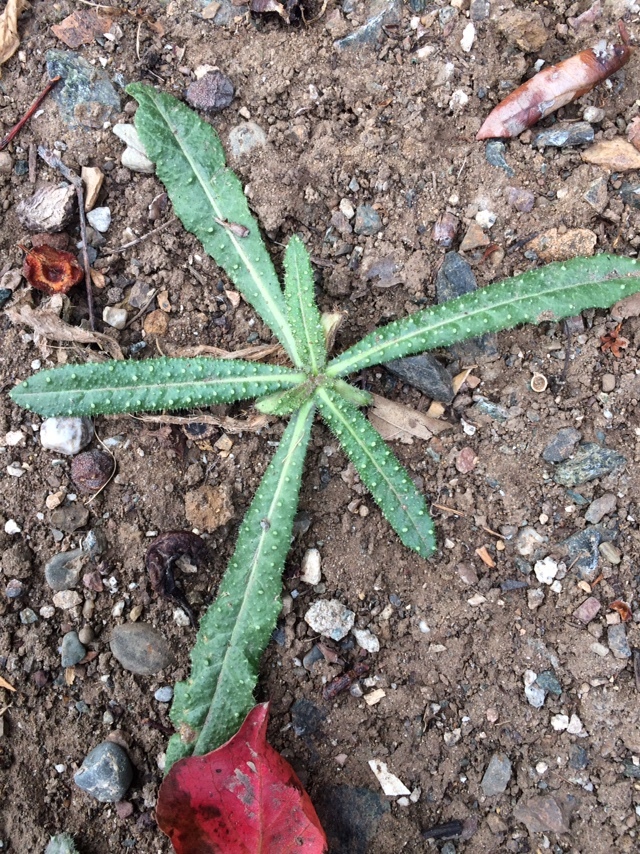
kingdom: Plantae
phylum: Tracheophyta
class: Magnoliopsida
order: Asterales
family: Asteraceae
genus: Helminthotheca
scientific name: Helminthotheca echioides
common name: Ox-tongue
